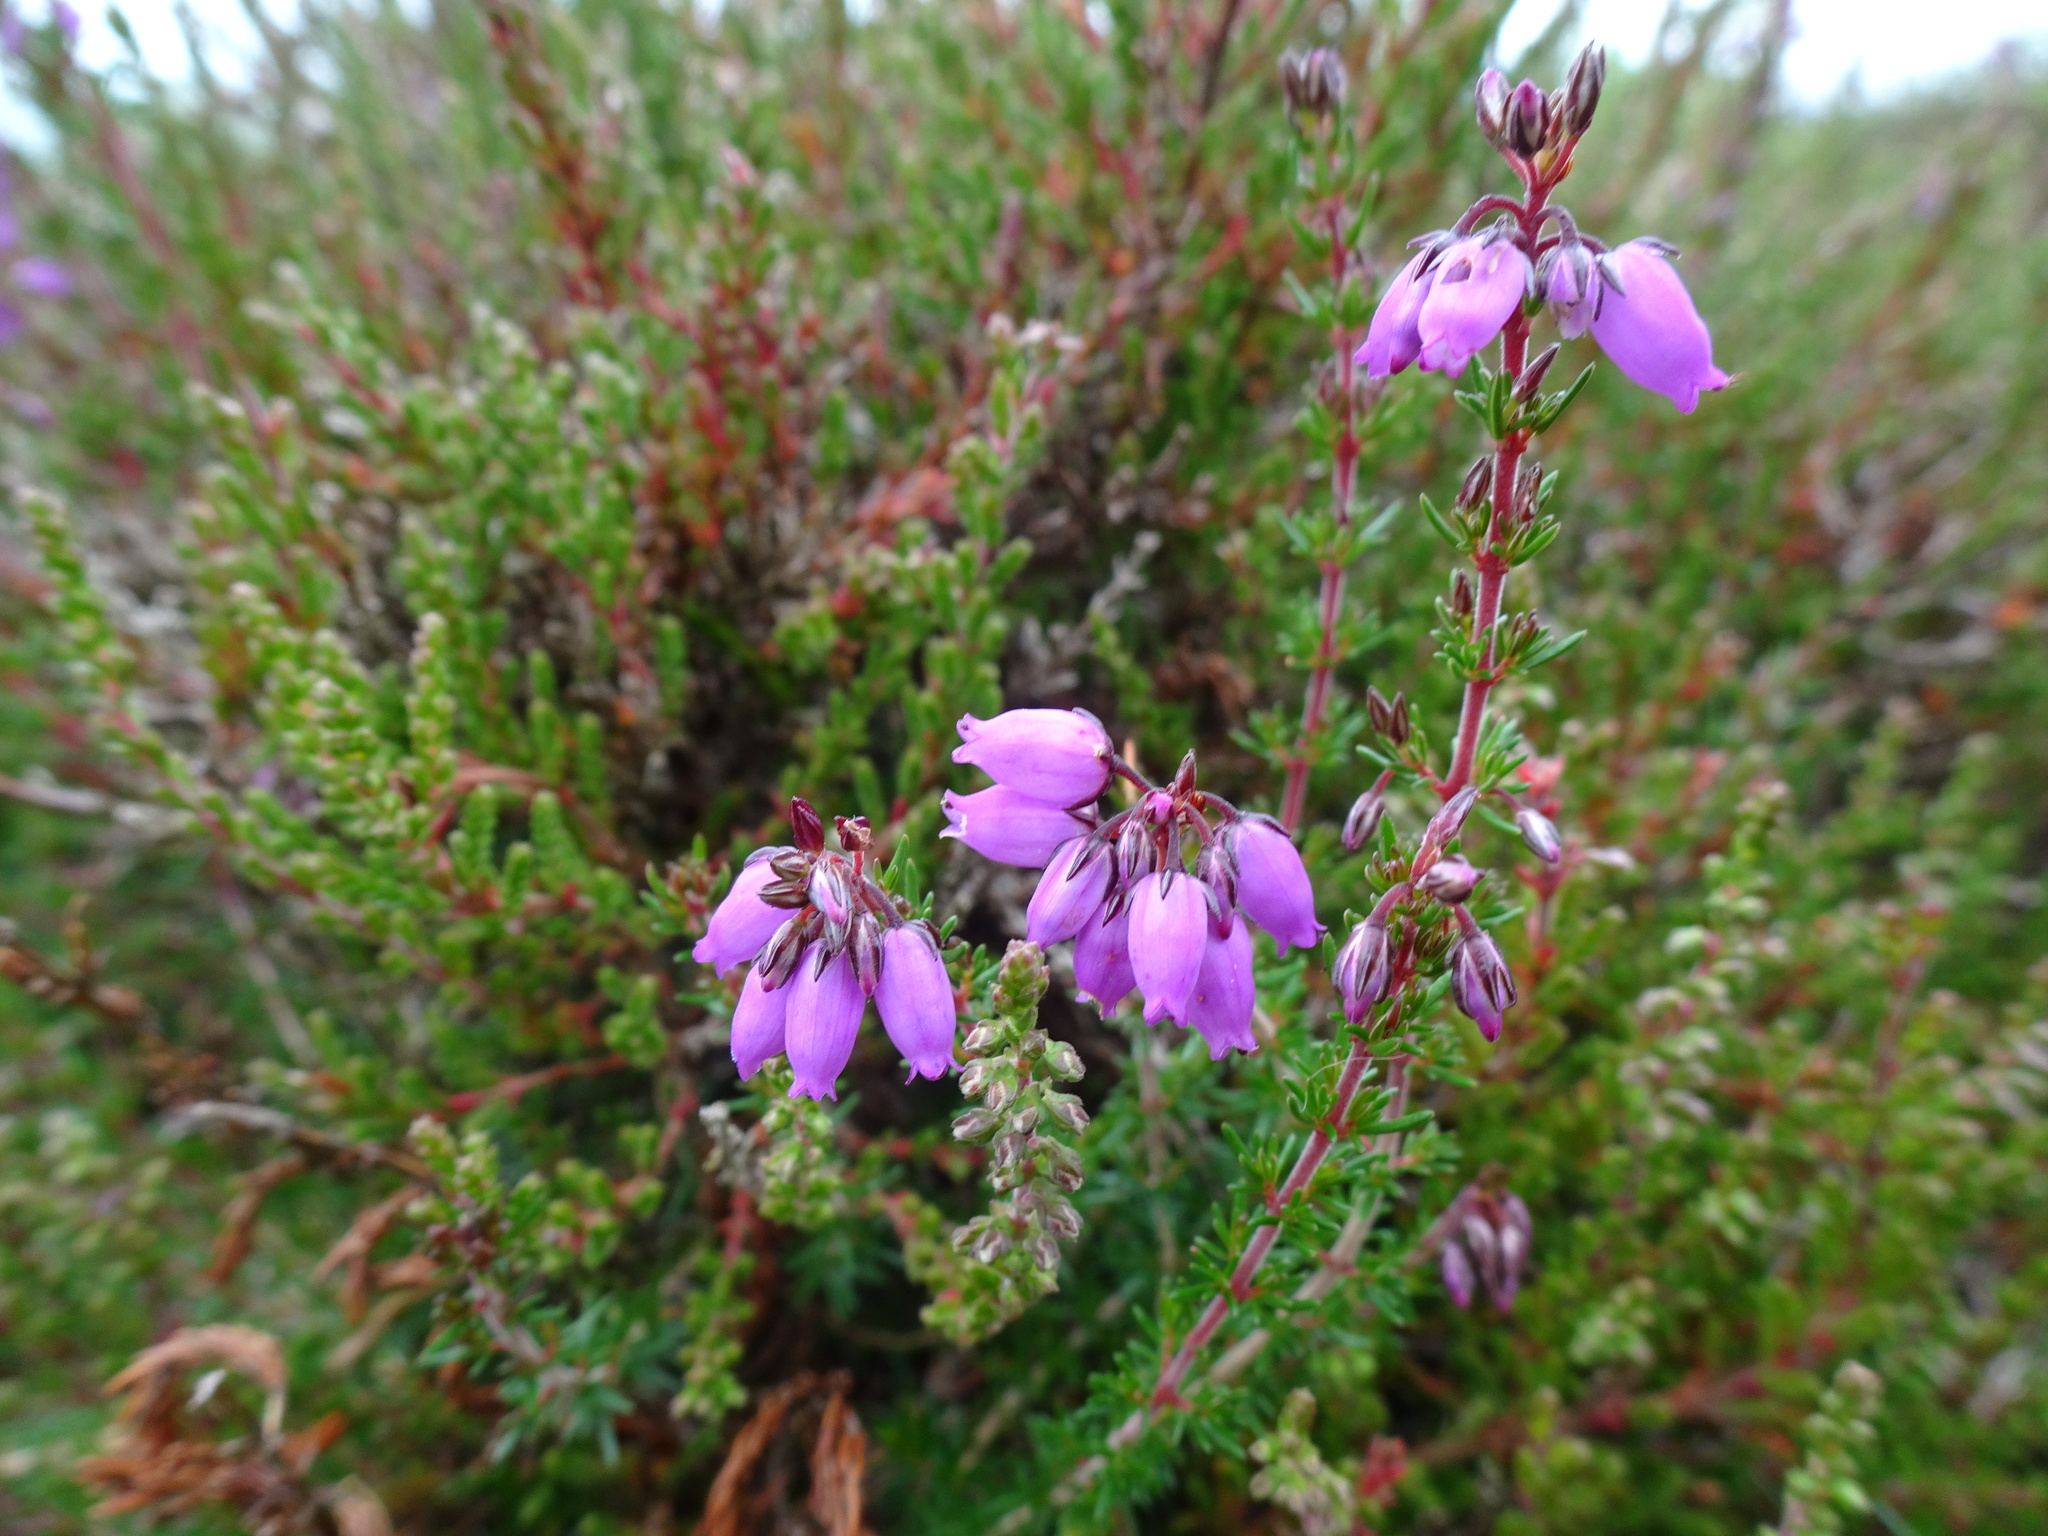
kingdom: Plantae
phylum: Tracheophyta
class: Magnoliopsida
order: Ericales
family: Ericaceae
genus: Erica
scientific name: Erica cinerea
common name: Bell heather
